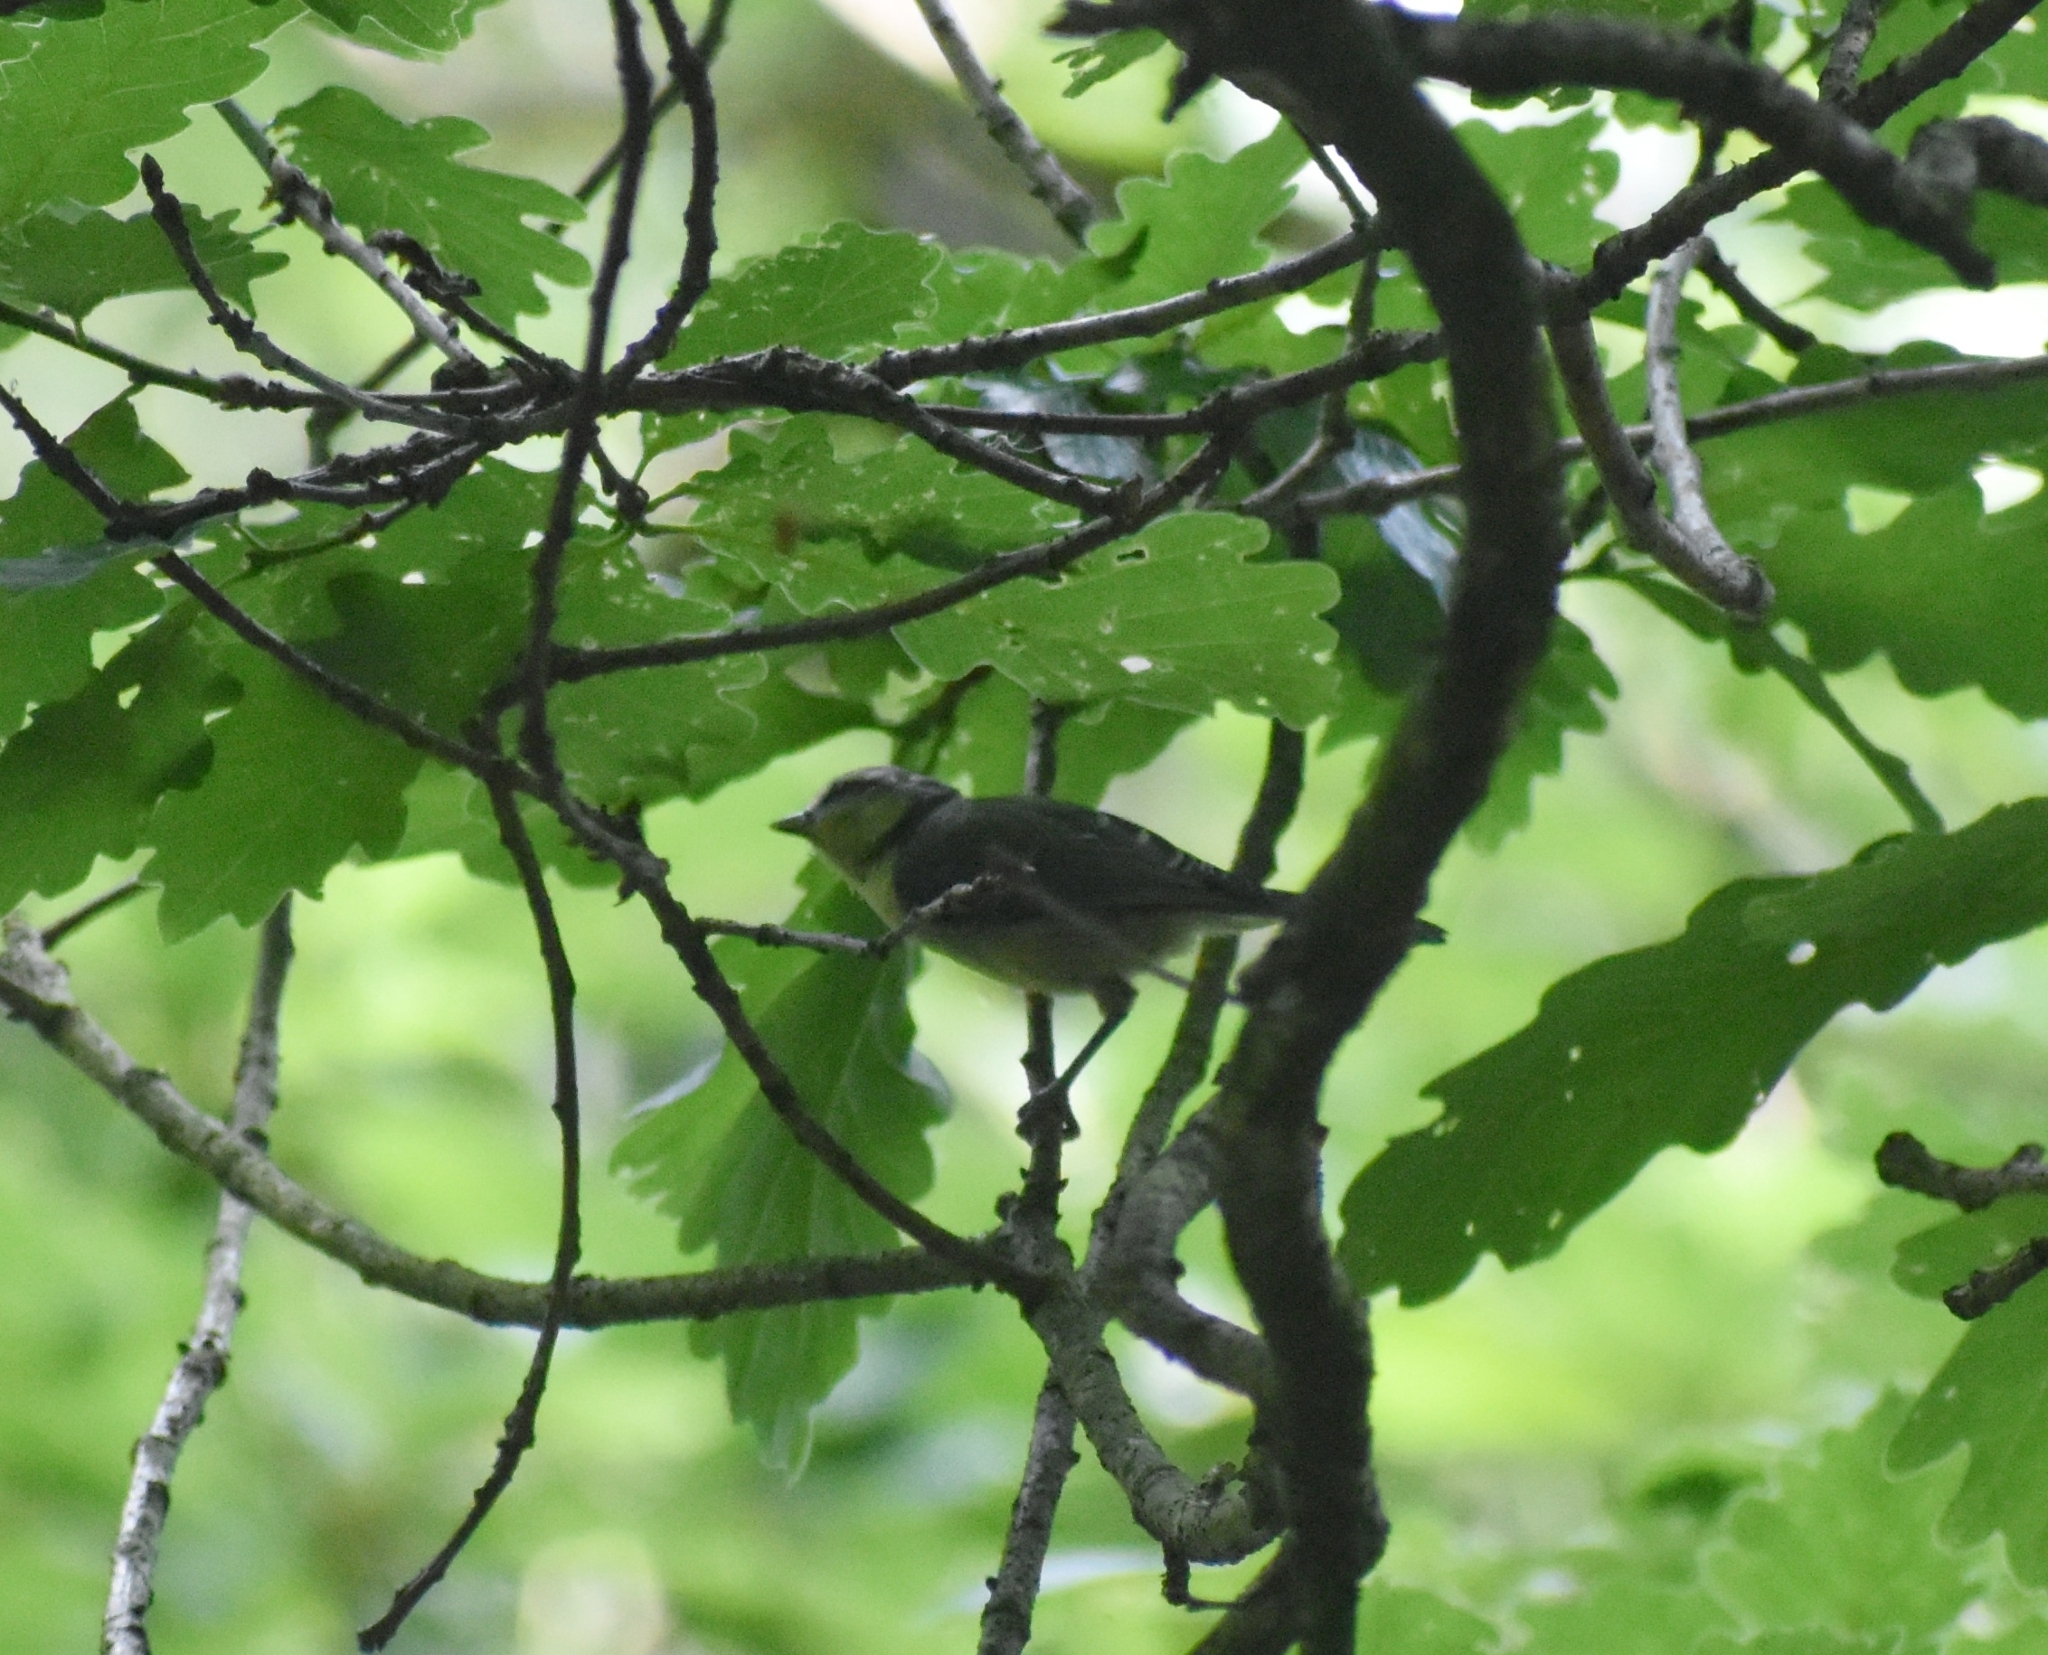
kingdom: Animalia
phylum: Chordata
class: Aves
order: Passeriformes
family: Paridae
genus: Cyanistes
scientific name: Cyanistes caeruleus
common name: Eurasian blue tit
